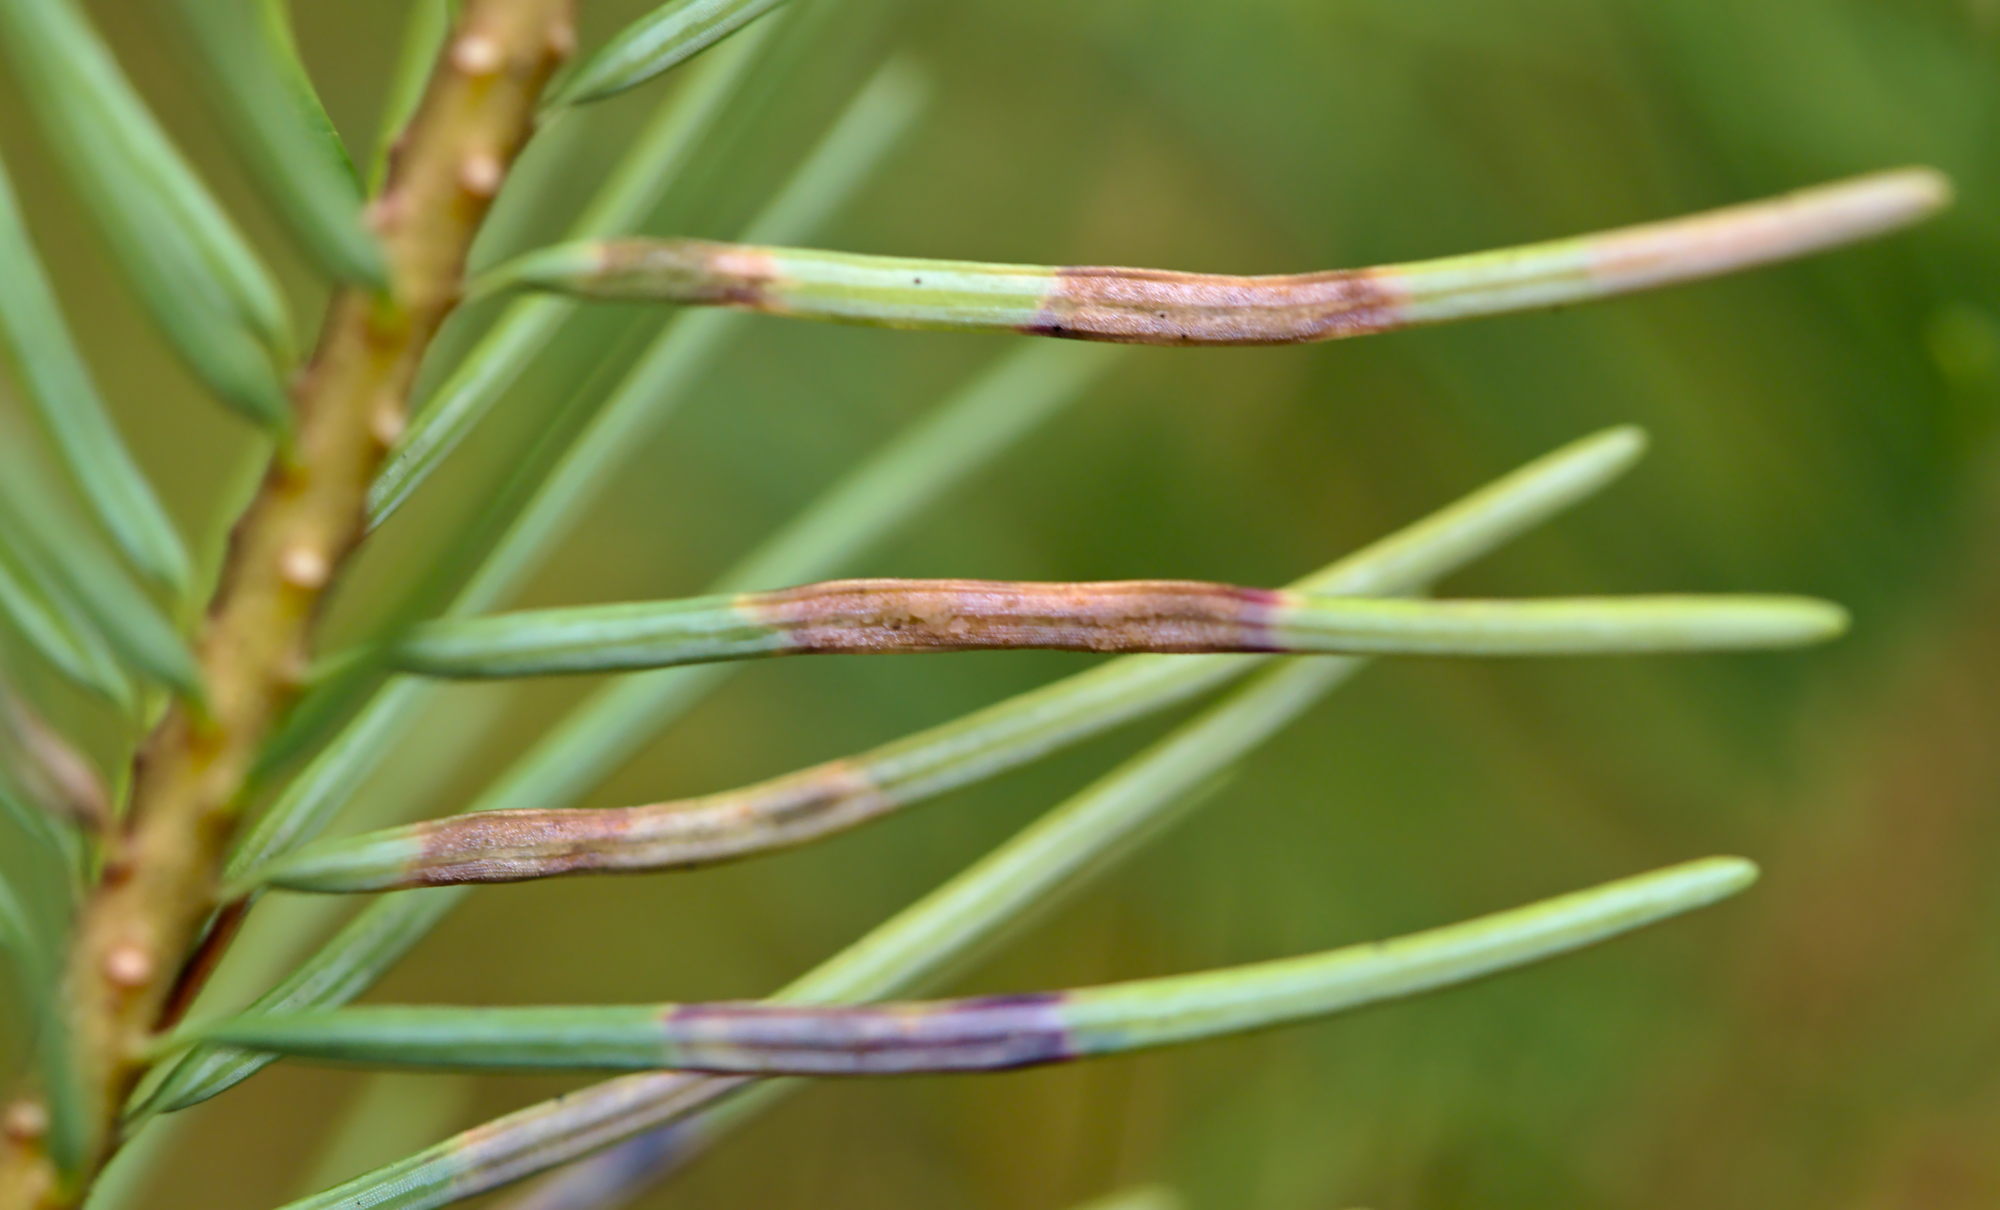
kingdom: Animalia
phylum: Arthropoda
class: Insecta
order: Diptera
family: Cecidomyiidae
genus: Contarinia
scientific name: Contarinia pseudotsugae
